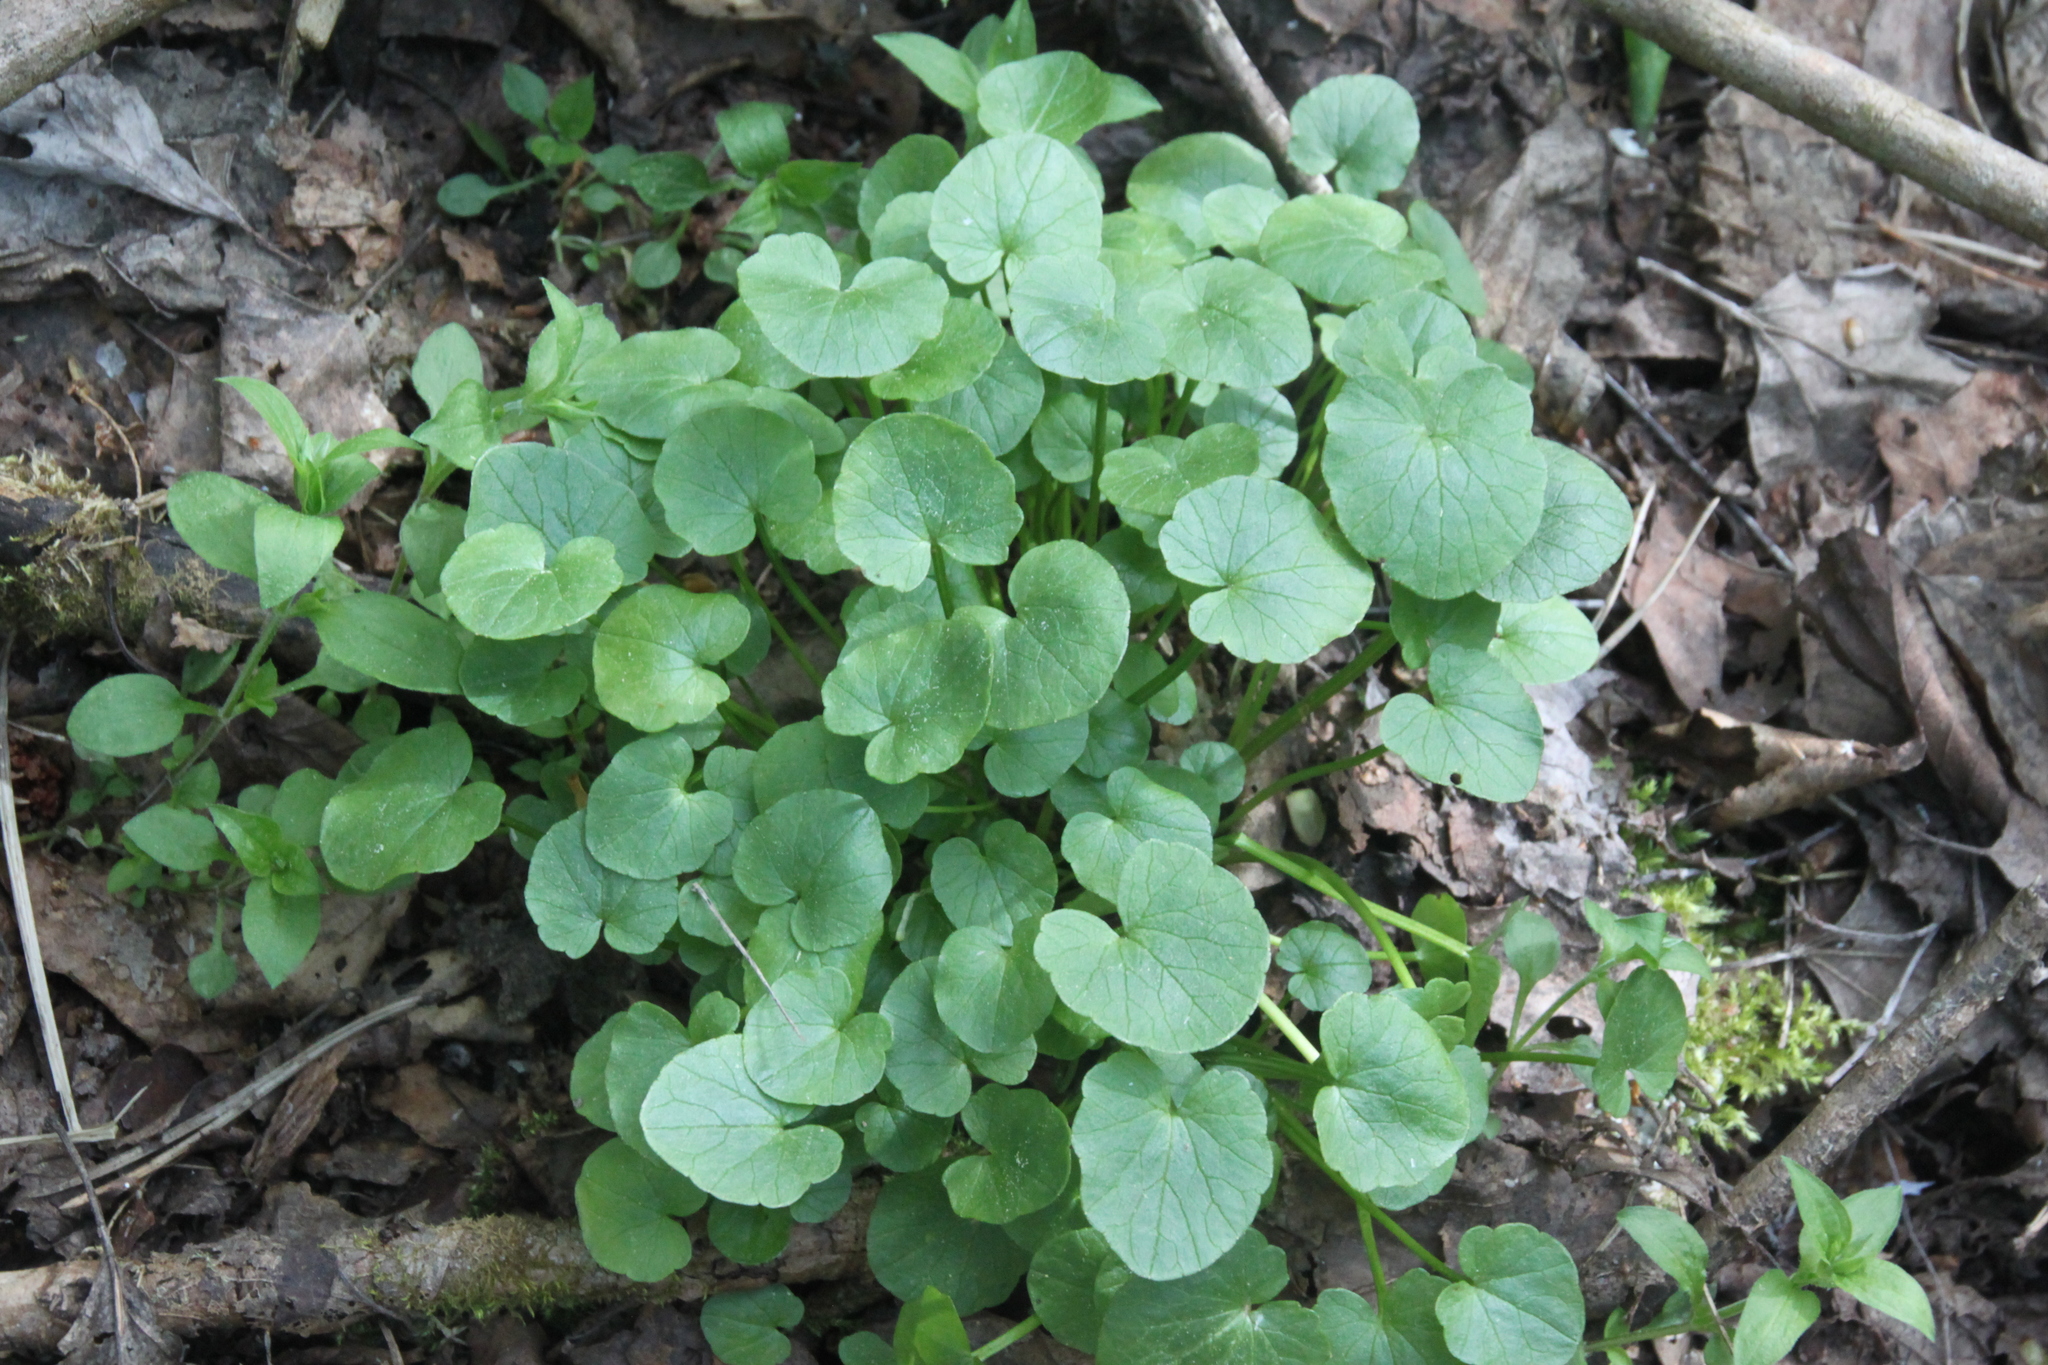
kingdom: Plantae
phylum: Tracheophyta
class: Magnoliopsida
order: Ranunculales
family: Ranunculaceae
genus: Ficaria
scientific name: Ficaria verna
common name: Lesser celandine
